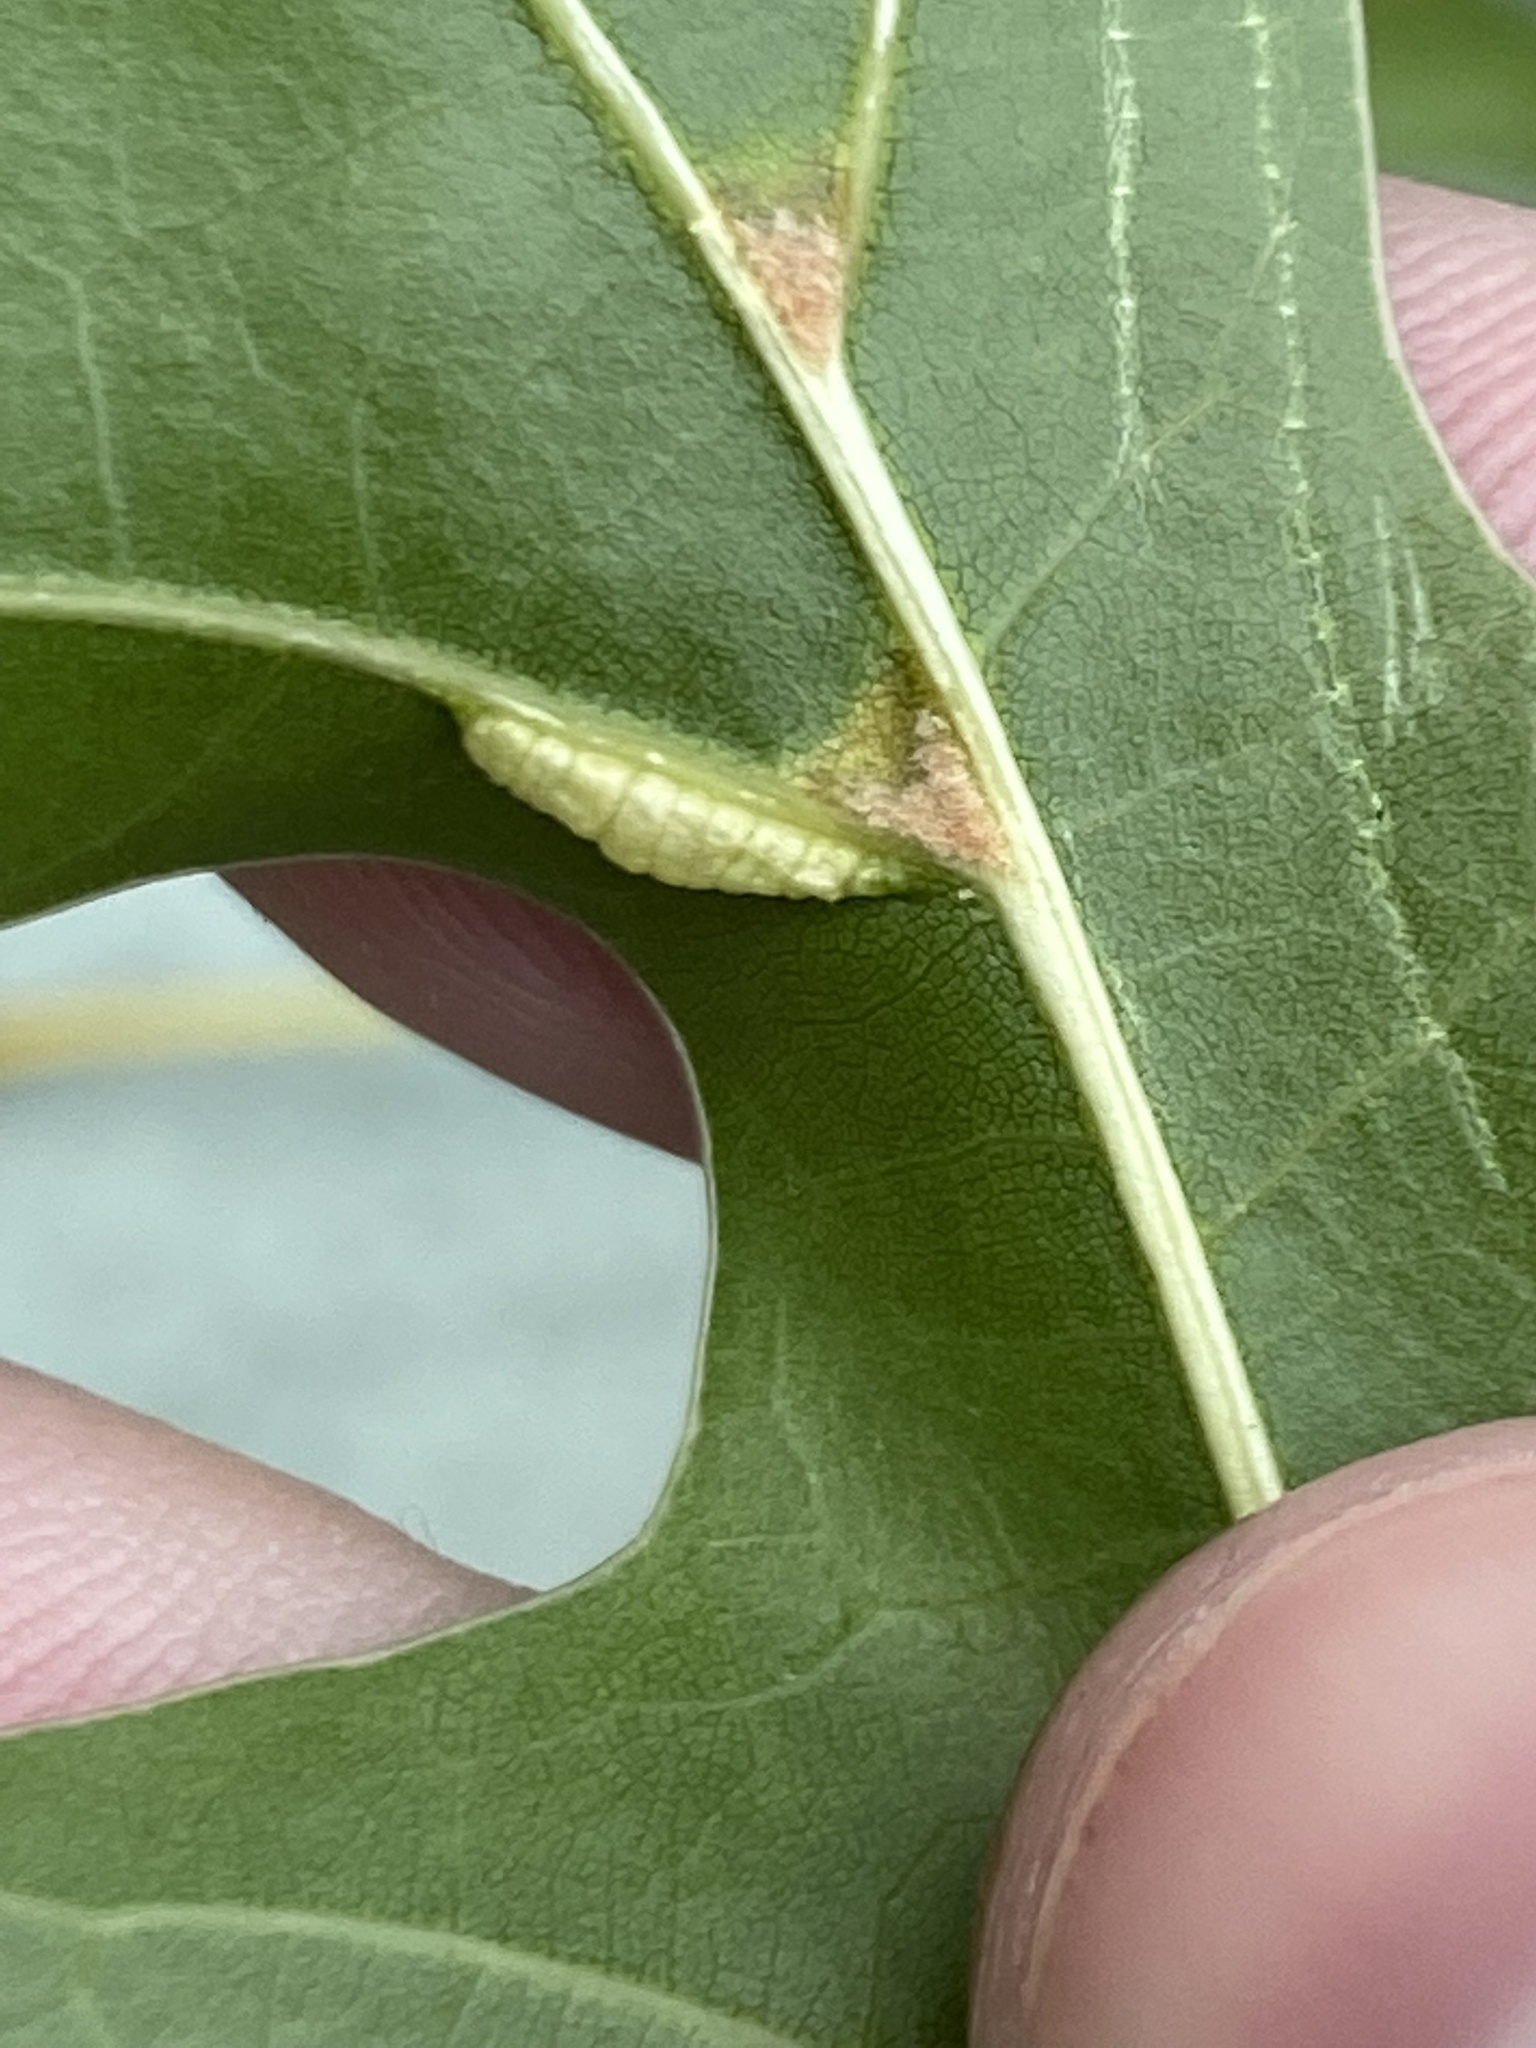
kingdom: Animalia
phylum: Arthropoda
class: Insecta
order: Diptera
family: Cecidomyiidae
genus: Macrodiplosis
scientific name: Macrodiplosis q-orucum
